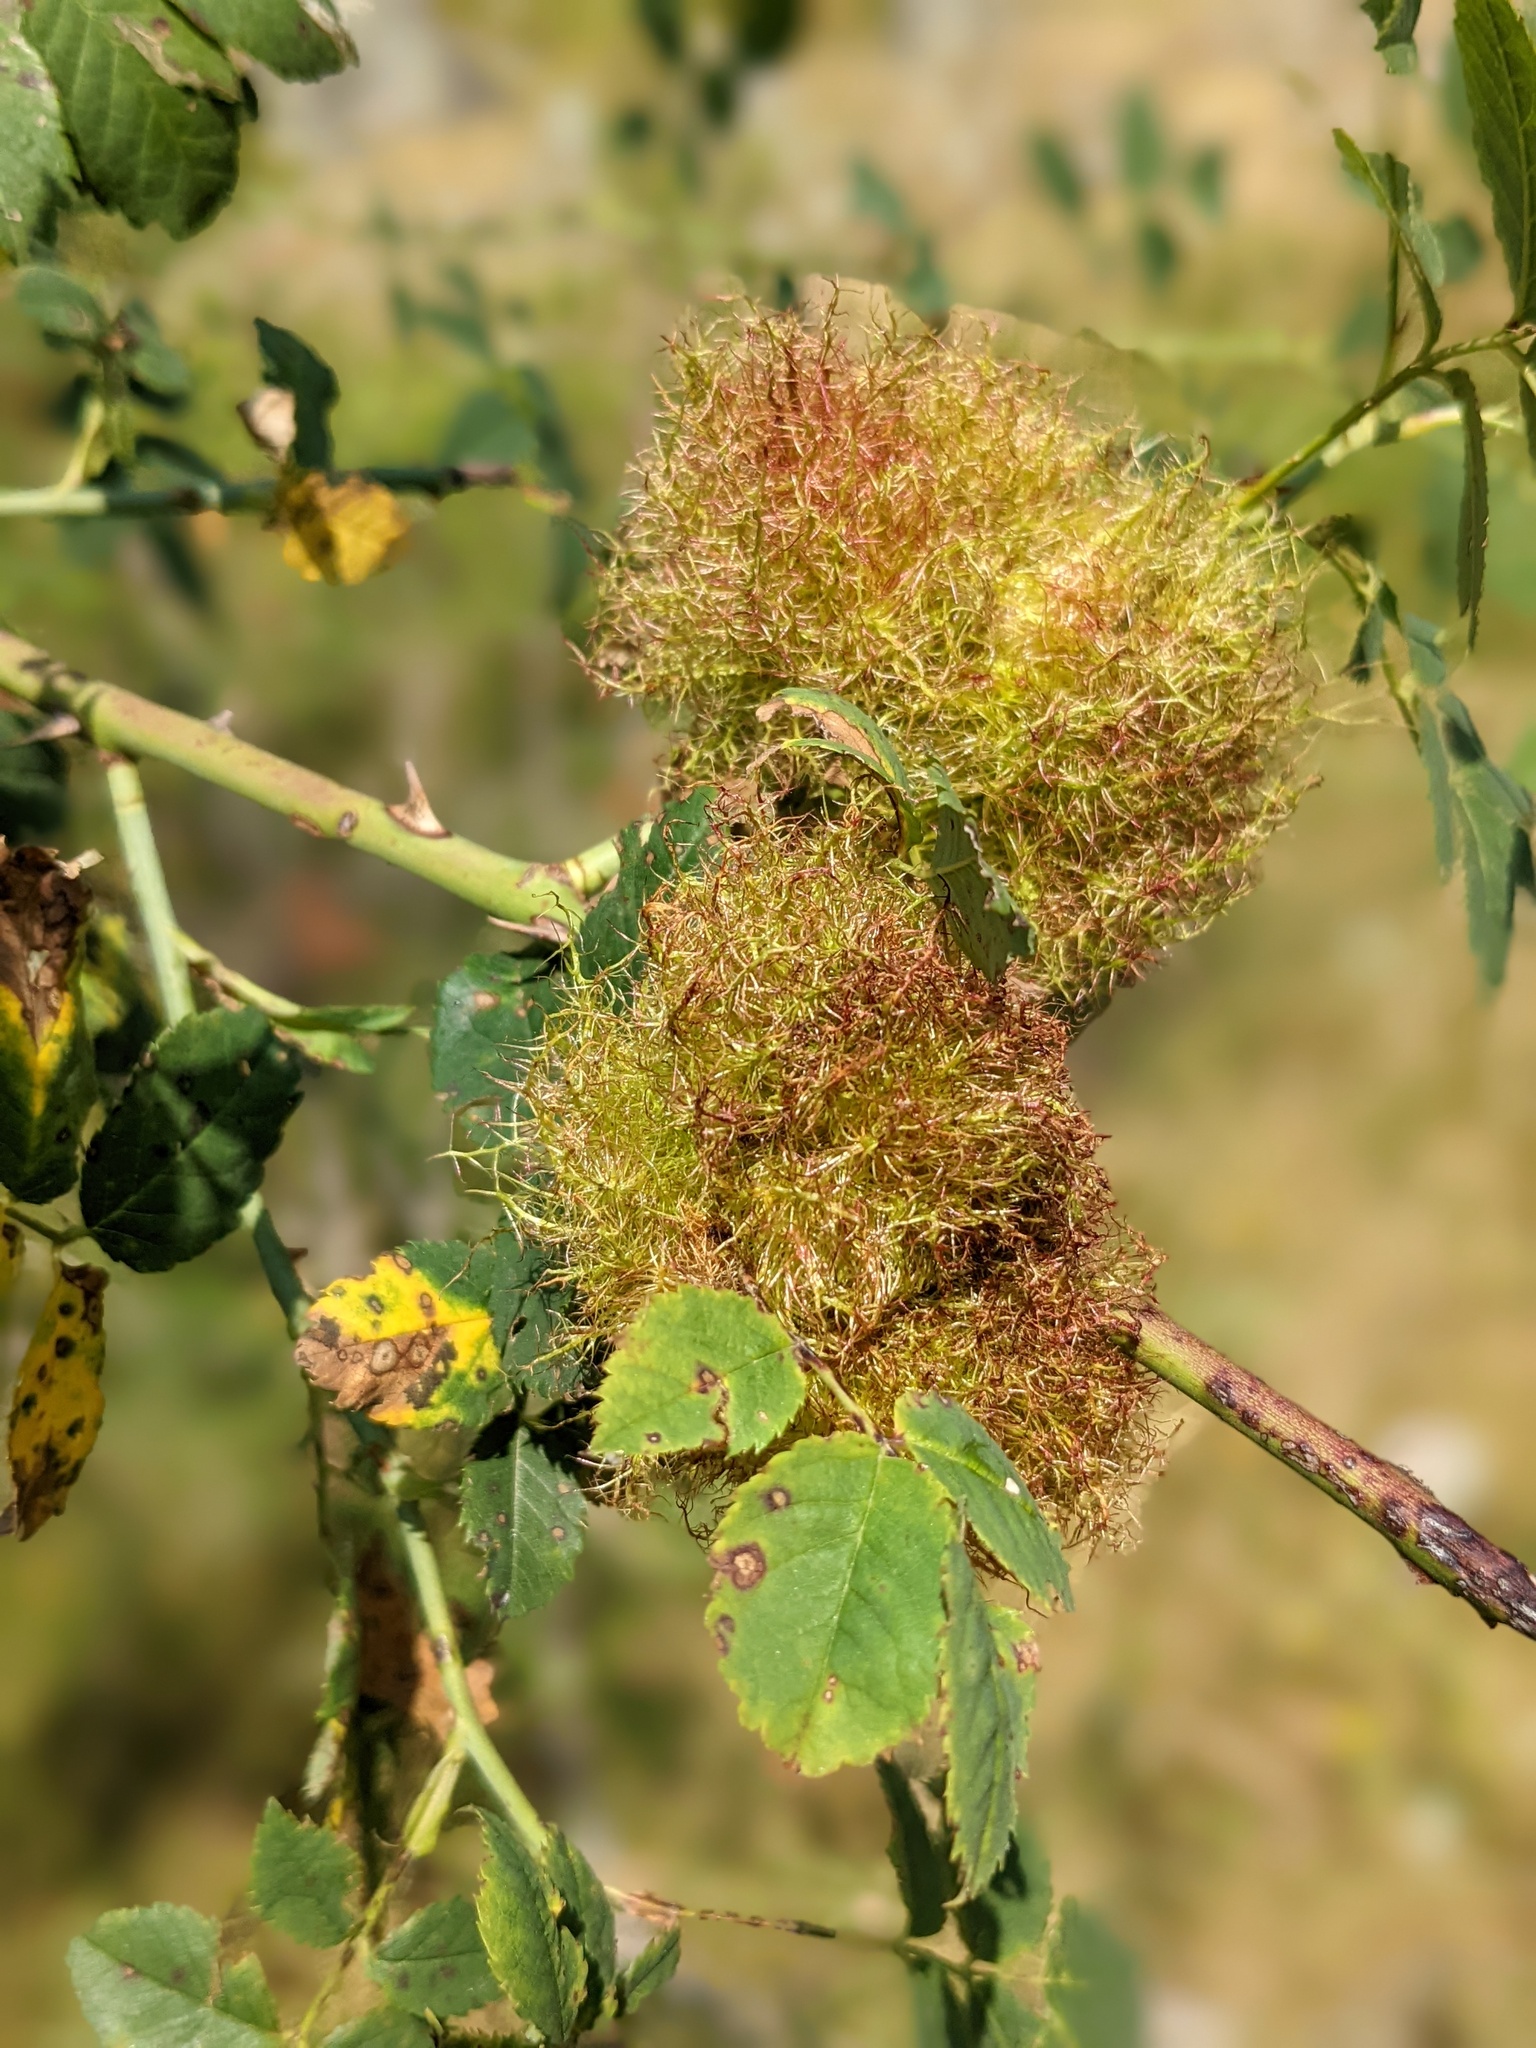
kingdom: Animalia
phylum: Arthropoda
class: Insecta
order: Hymenoptera
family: Cynipidae
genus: Diplolepis
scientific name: Diplolepis rosae
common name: Bedeguar gall
